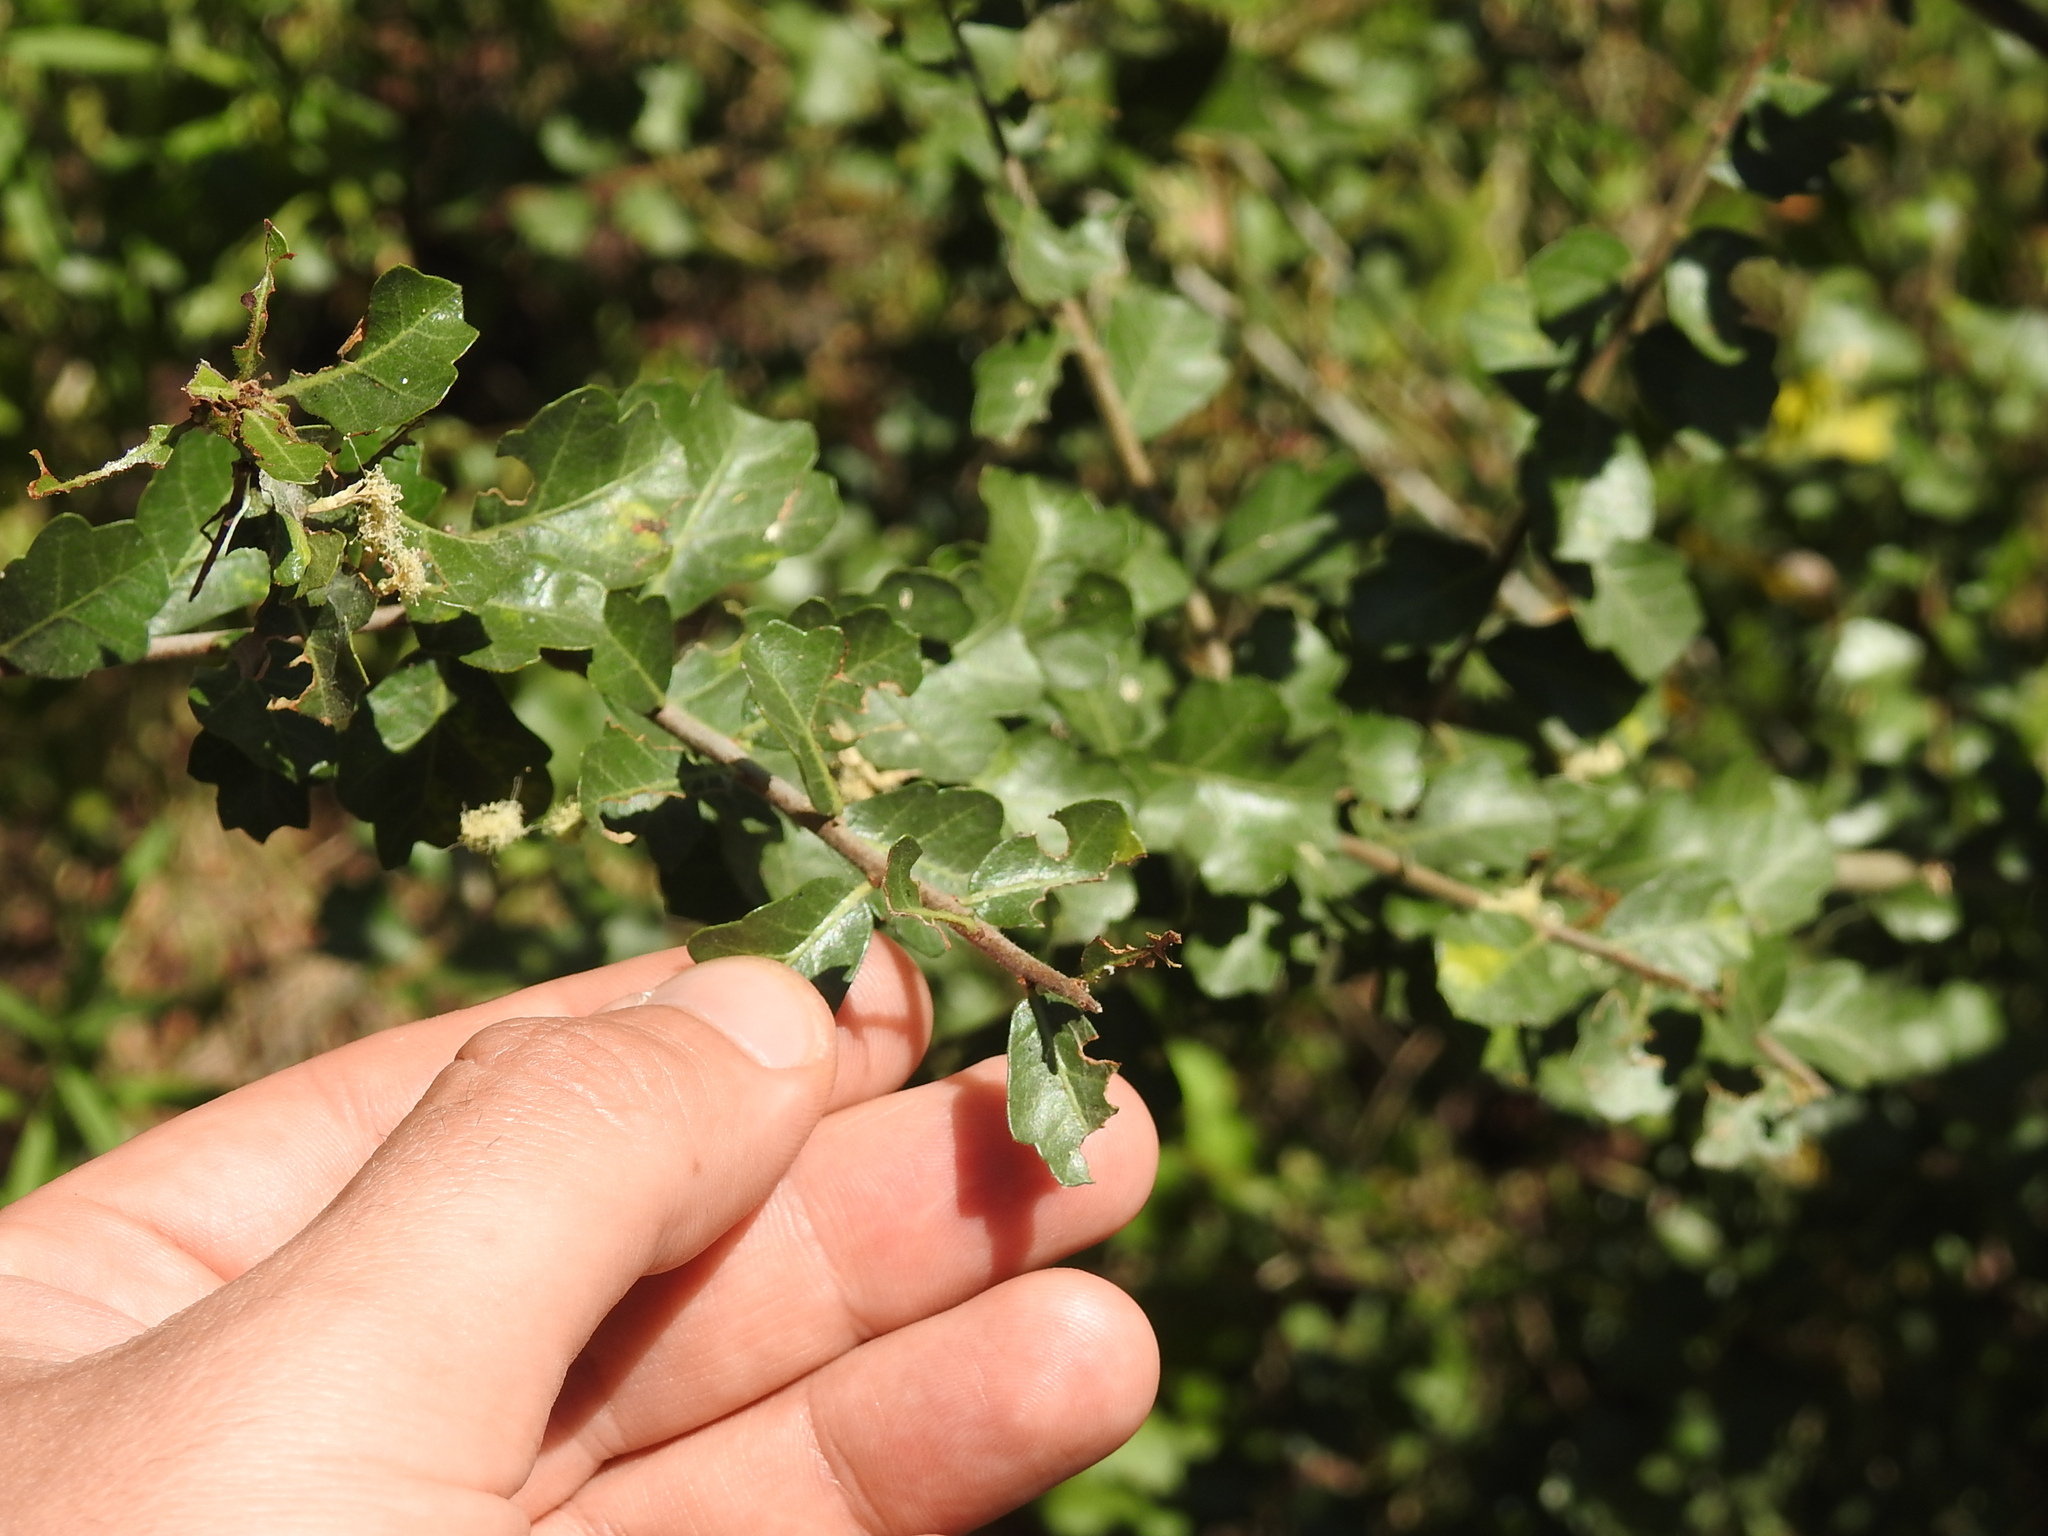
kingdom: Plantae
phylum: Tracheophyta
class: Magnoliopsida
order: Sapindales
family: Anacardiaceae
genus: Schinus
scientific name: Schinus fasciculata
